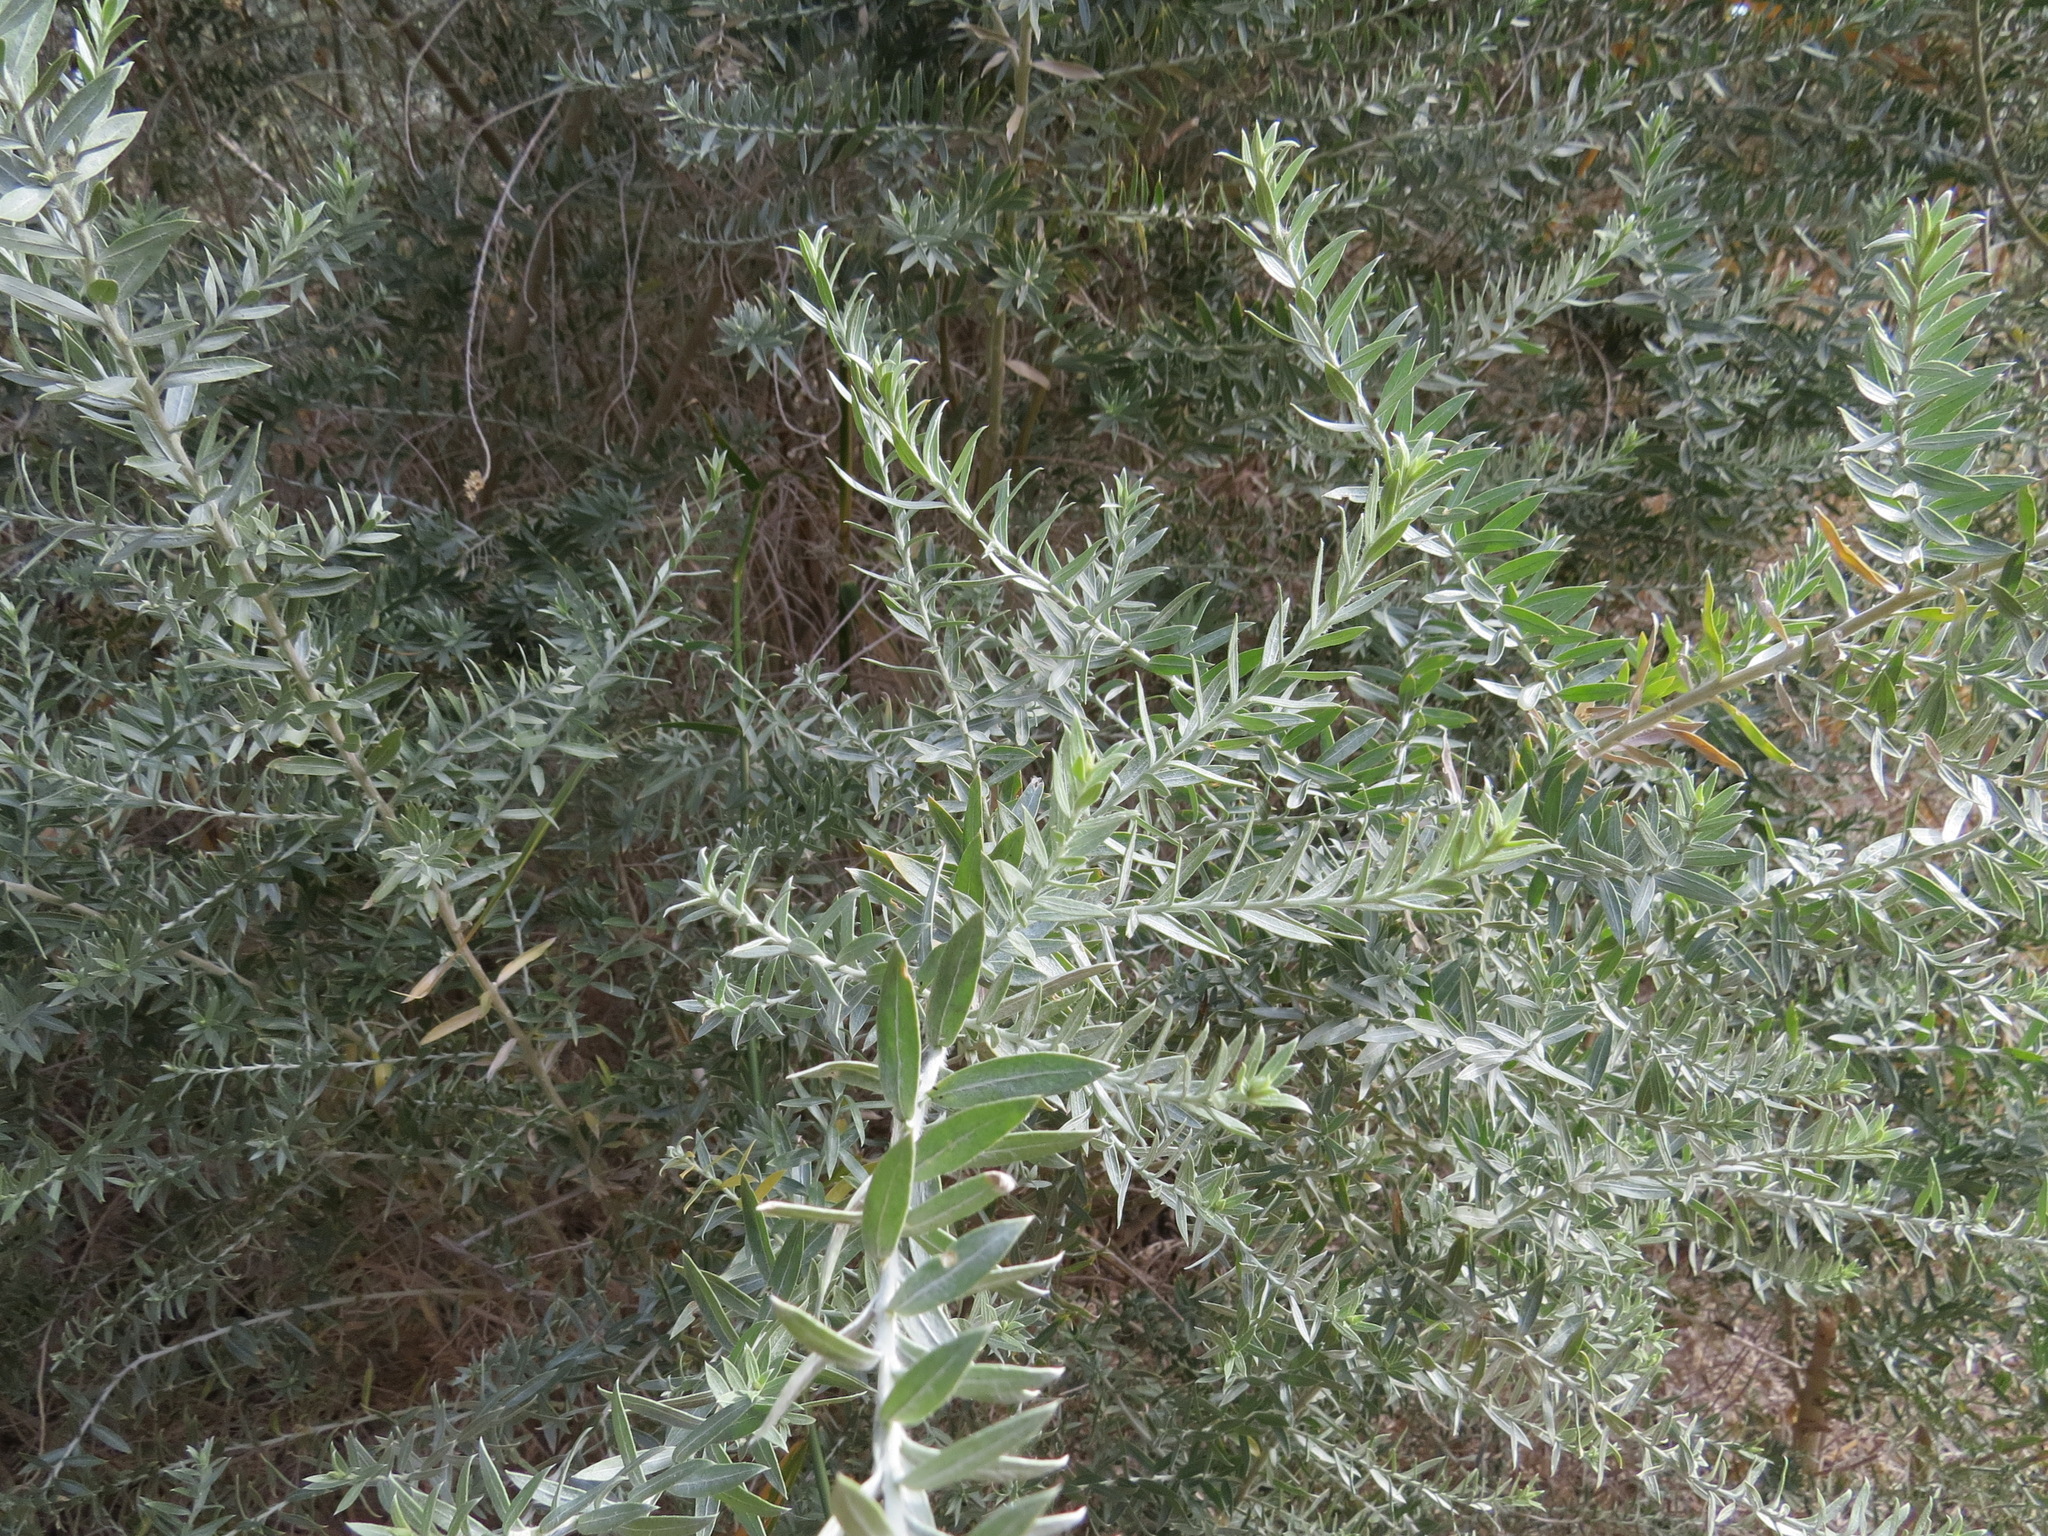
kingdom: Plantae
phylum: Tracheophyta
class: Magnoliopsida
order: Asterales
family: Asteraceae
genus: Pluchea
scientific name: Pluchea sericea
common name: Arrow-weed
